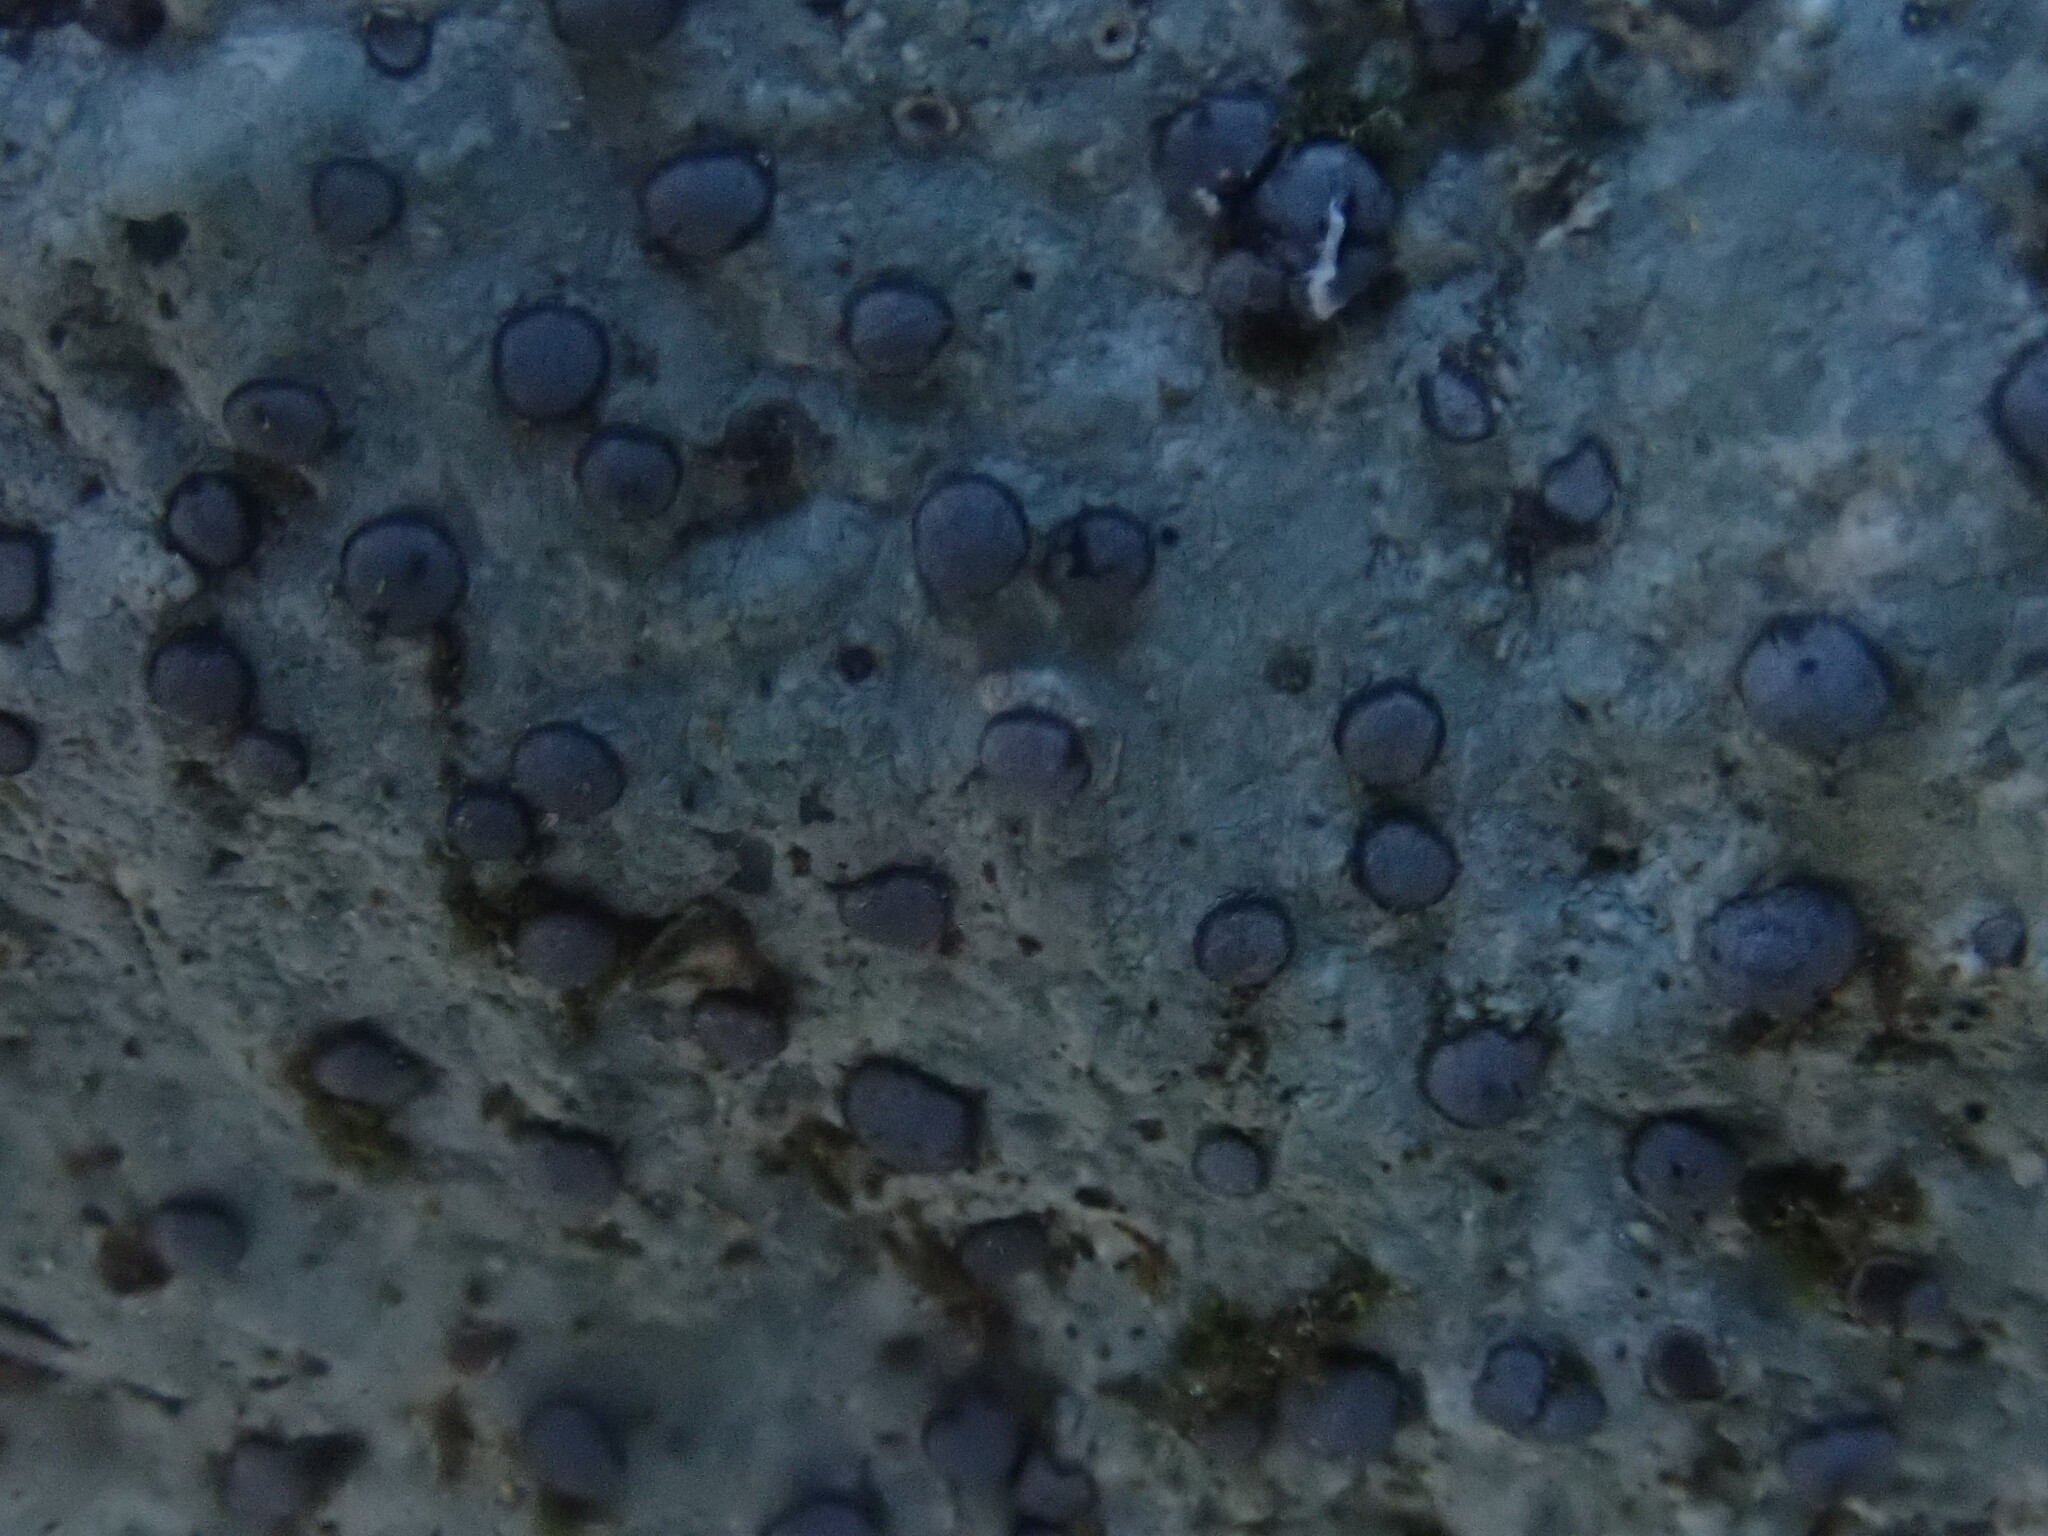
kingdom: Fungi
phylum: Ascomycota
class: Lecanoromycetes
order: Lecideales
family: Lecideaceae
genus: Porpidia
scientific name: Porpidia albocaerulescens
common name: Smokey-eyed boulder lichen
